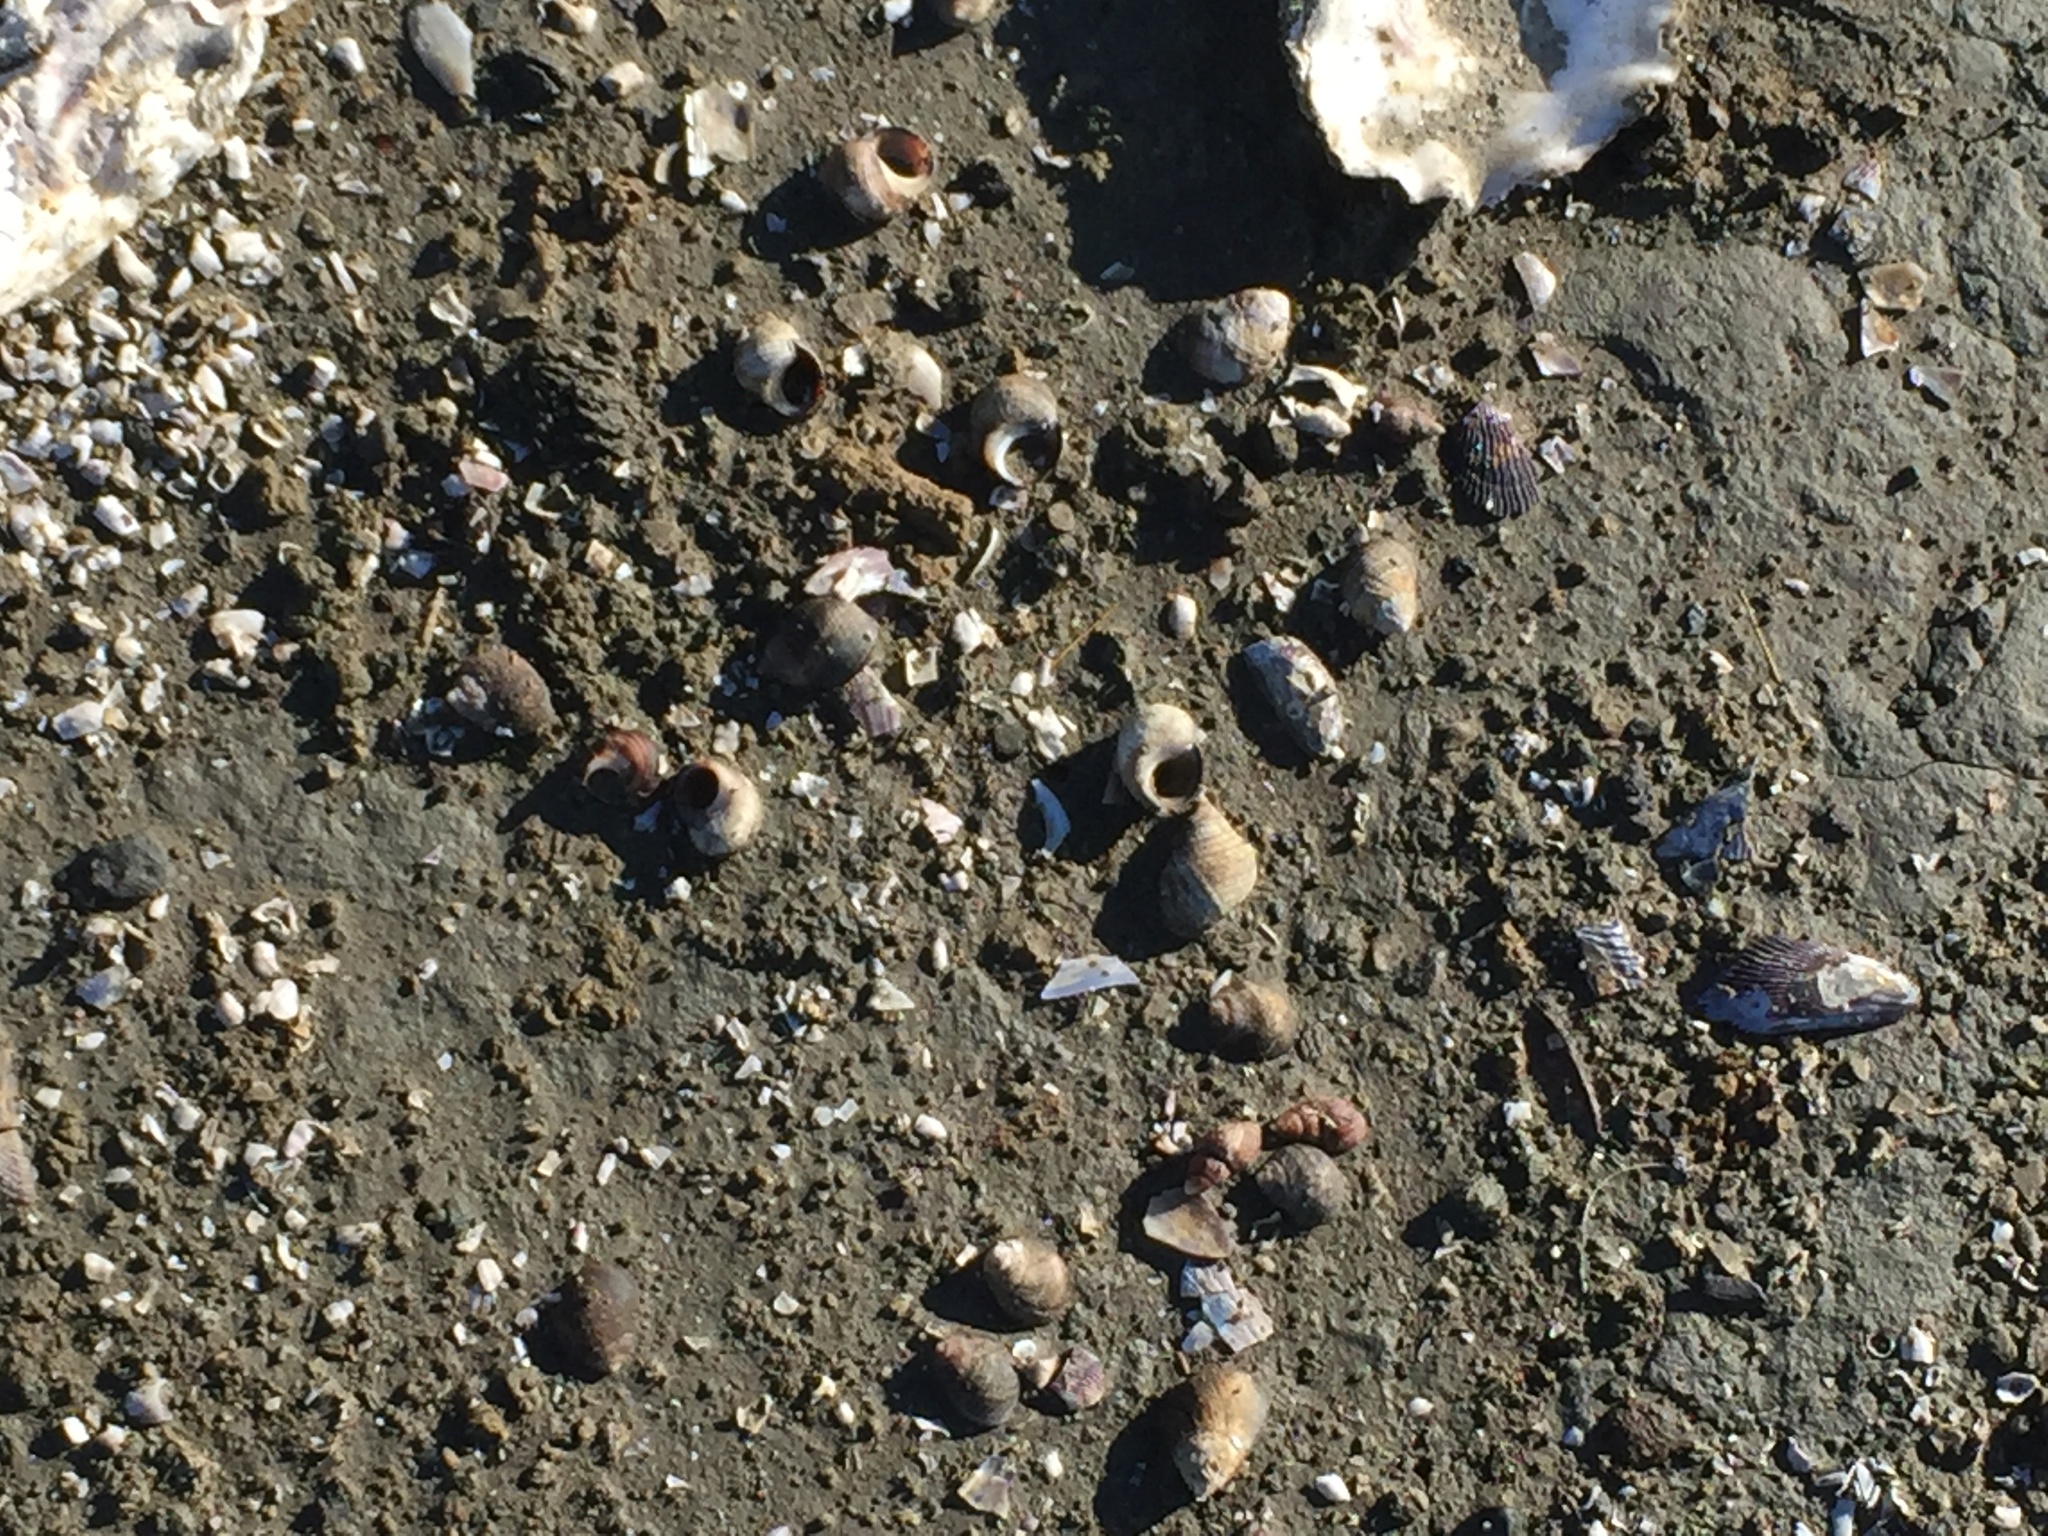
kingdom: Animalia
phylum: Mollusca
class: Gastropoda
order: Littorinimorpha
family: Littorinidae
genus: Littorina
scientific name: Littorina littorea
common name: Common periwinkle
